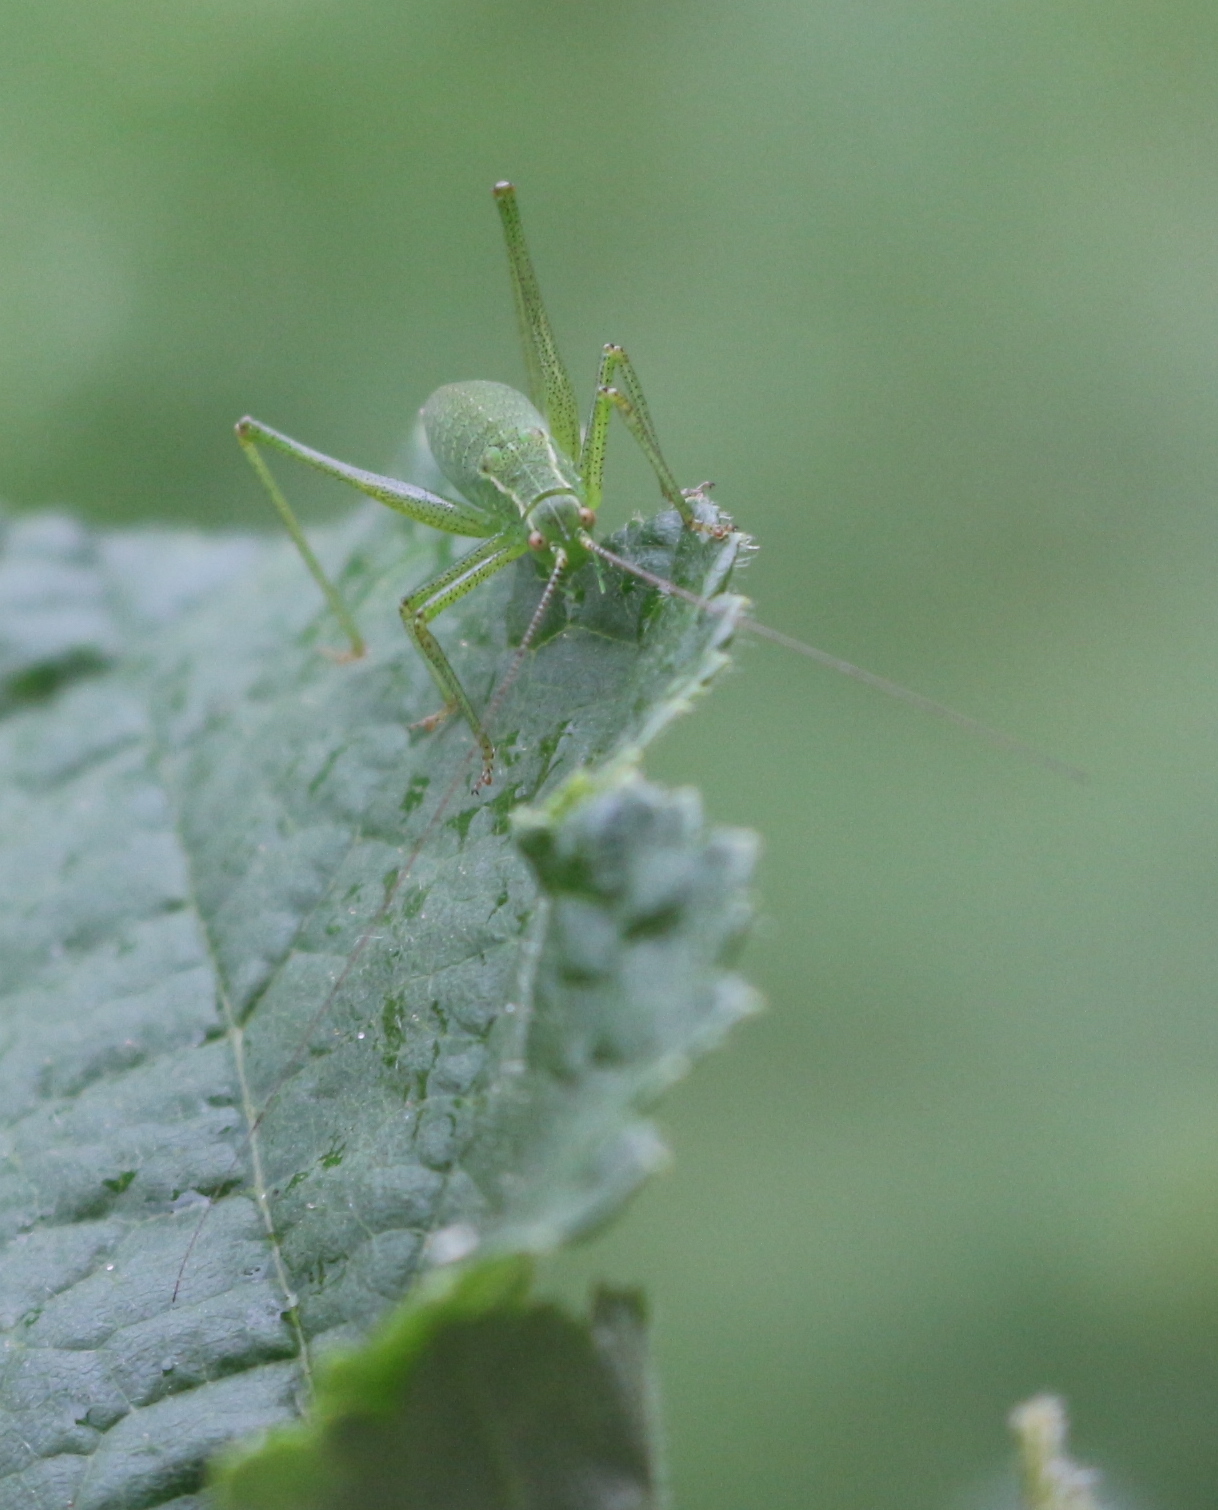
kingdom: Animalia
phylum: Arthropoda
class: Insecta
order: Orthoptera
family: Tettigoniidae
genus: Leptophyes
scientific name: Leptophyes punctatissima
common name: Speckled bush-cricket
